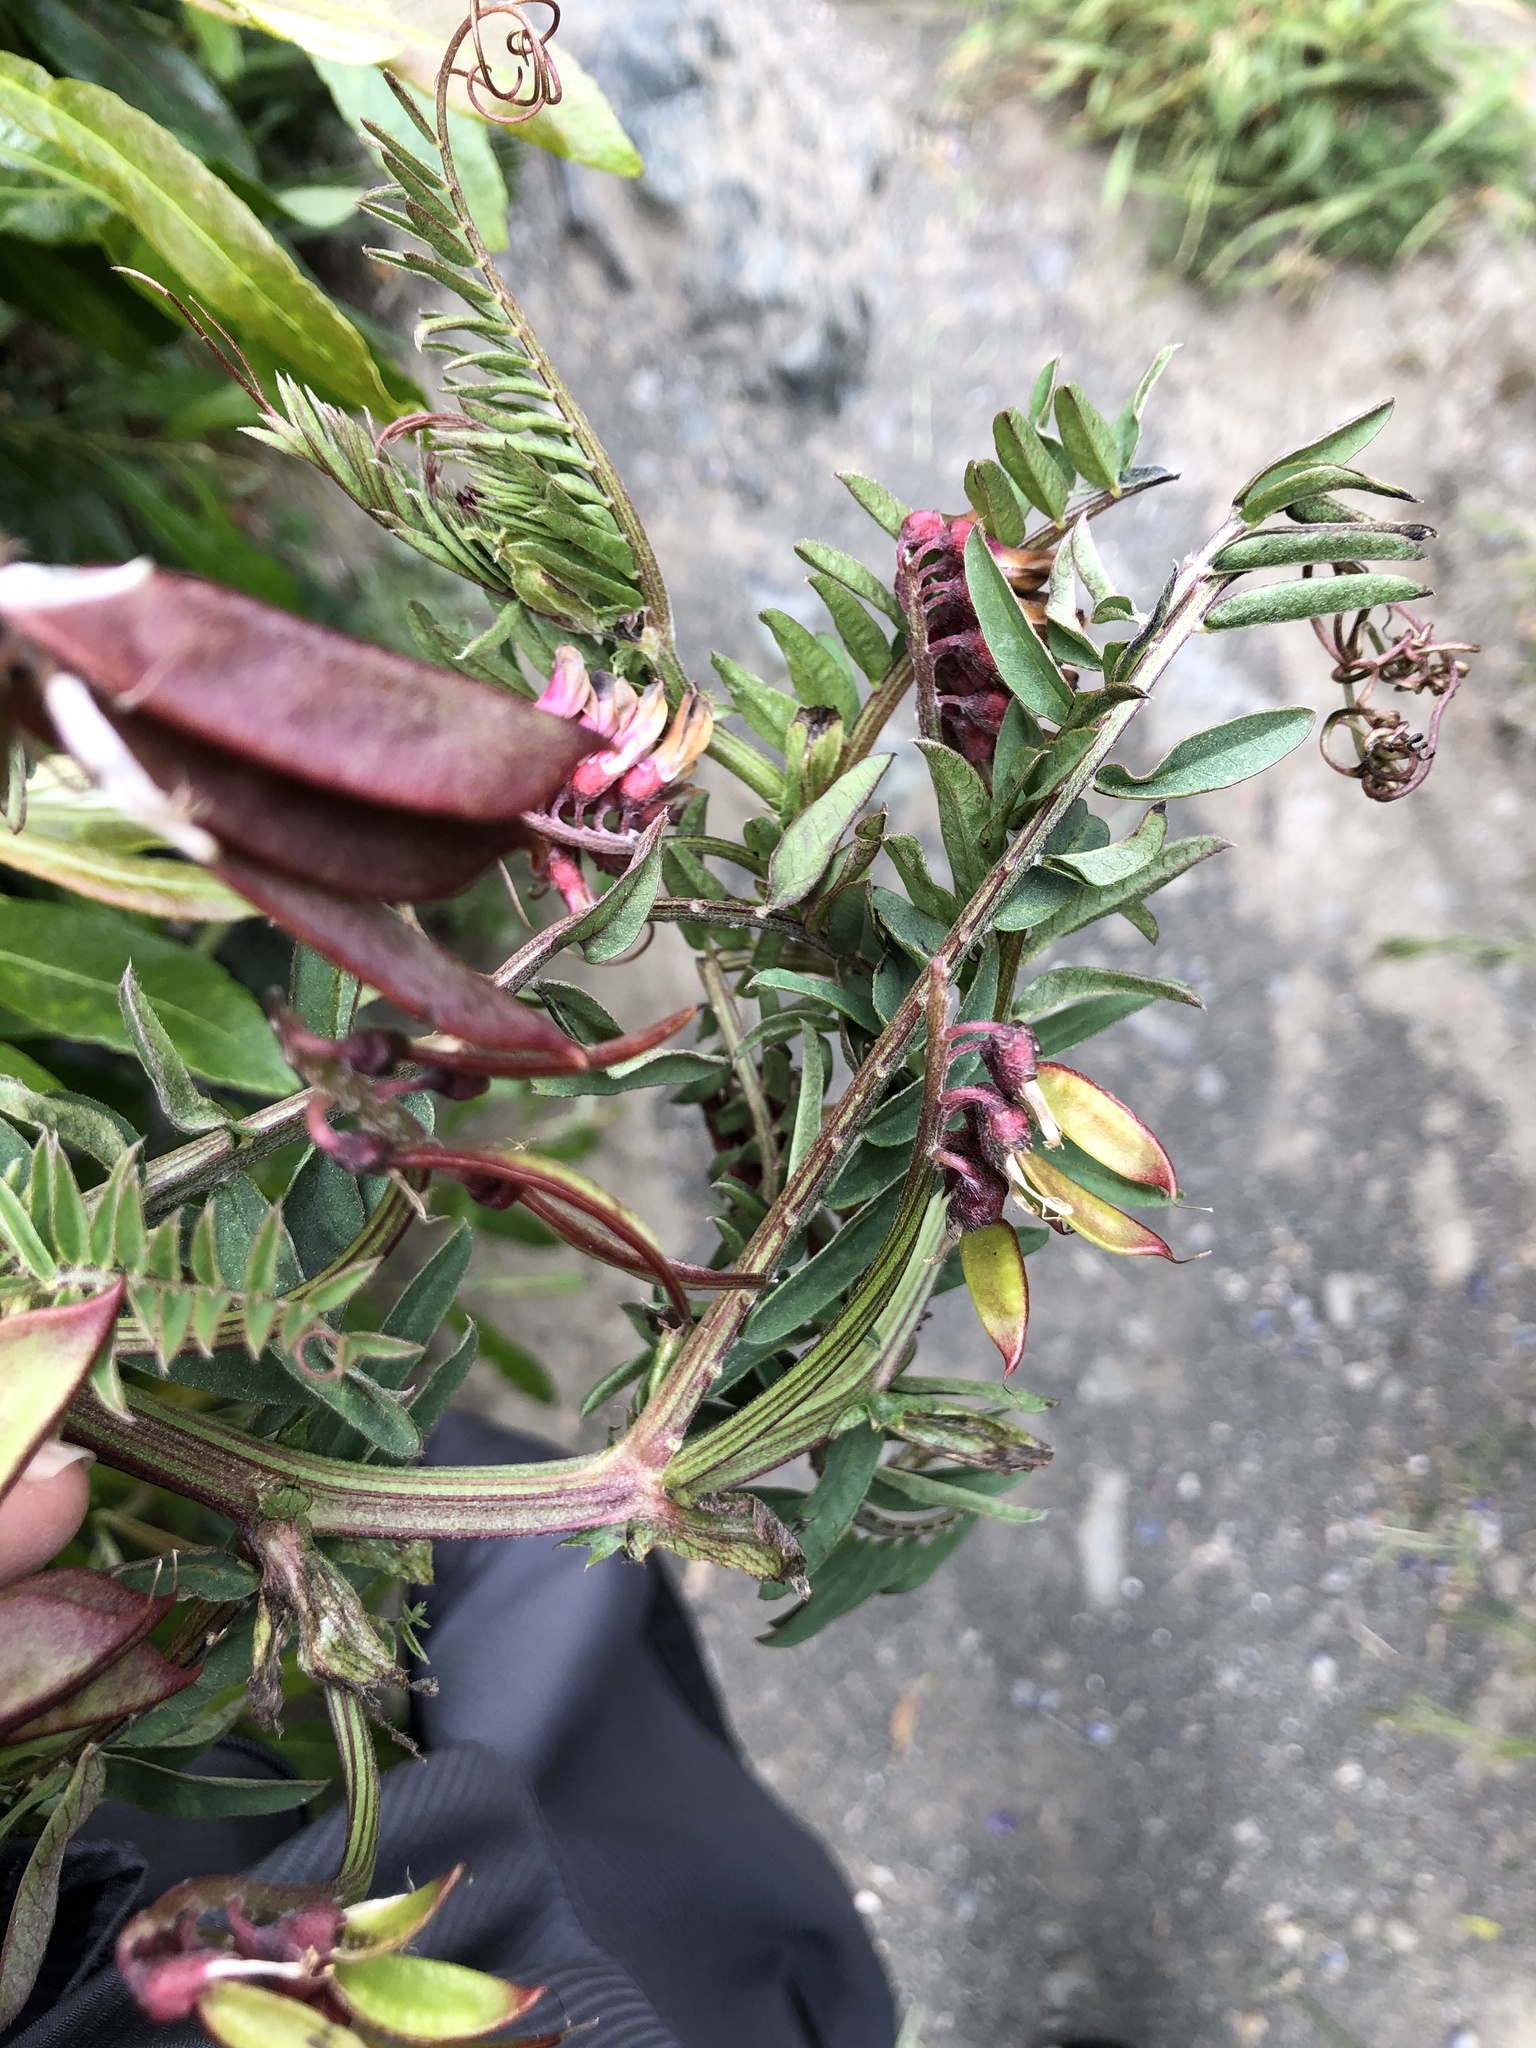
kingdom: Plantae
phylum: Tracheophyta
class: Magnoliopsida
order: Fabales
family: Fabaceae
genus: Vicia
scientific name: Vicia
